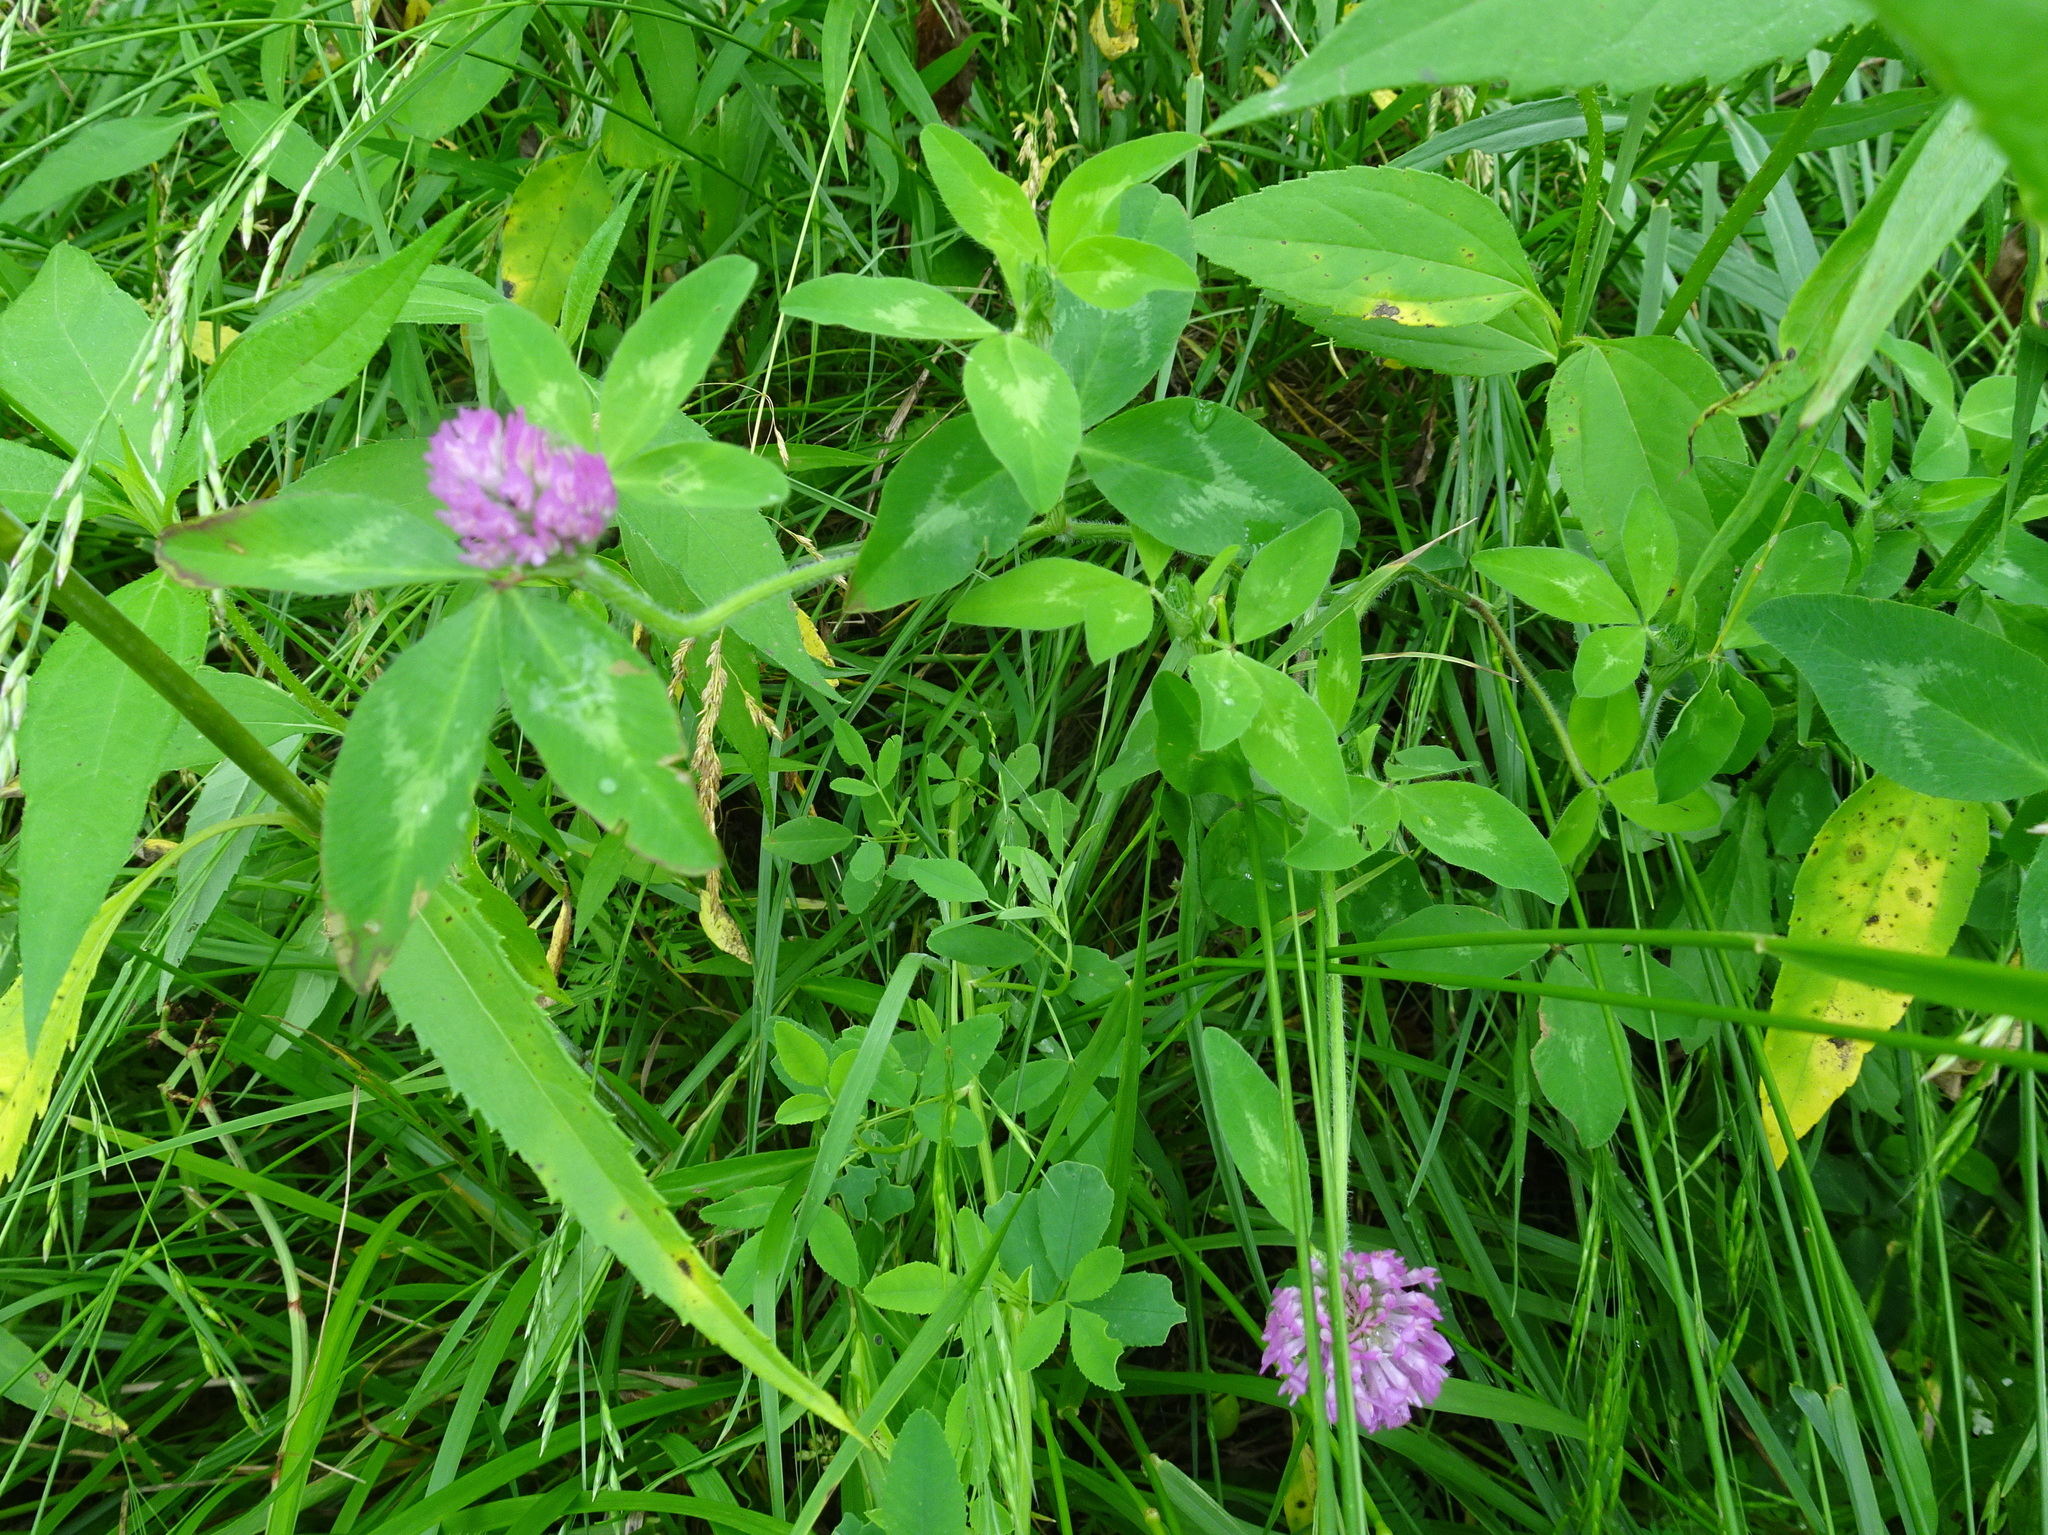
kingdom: Plantae
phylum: Tracheophyta
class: Magnoliopsida
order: Fabales
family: Fabaceae
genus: Trifolium
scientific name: Trifolium pratense
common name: Red clover
